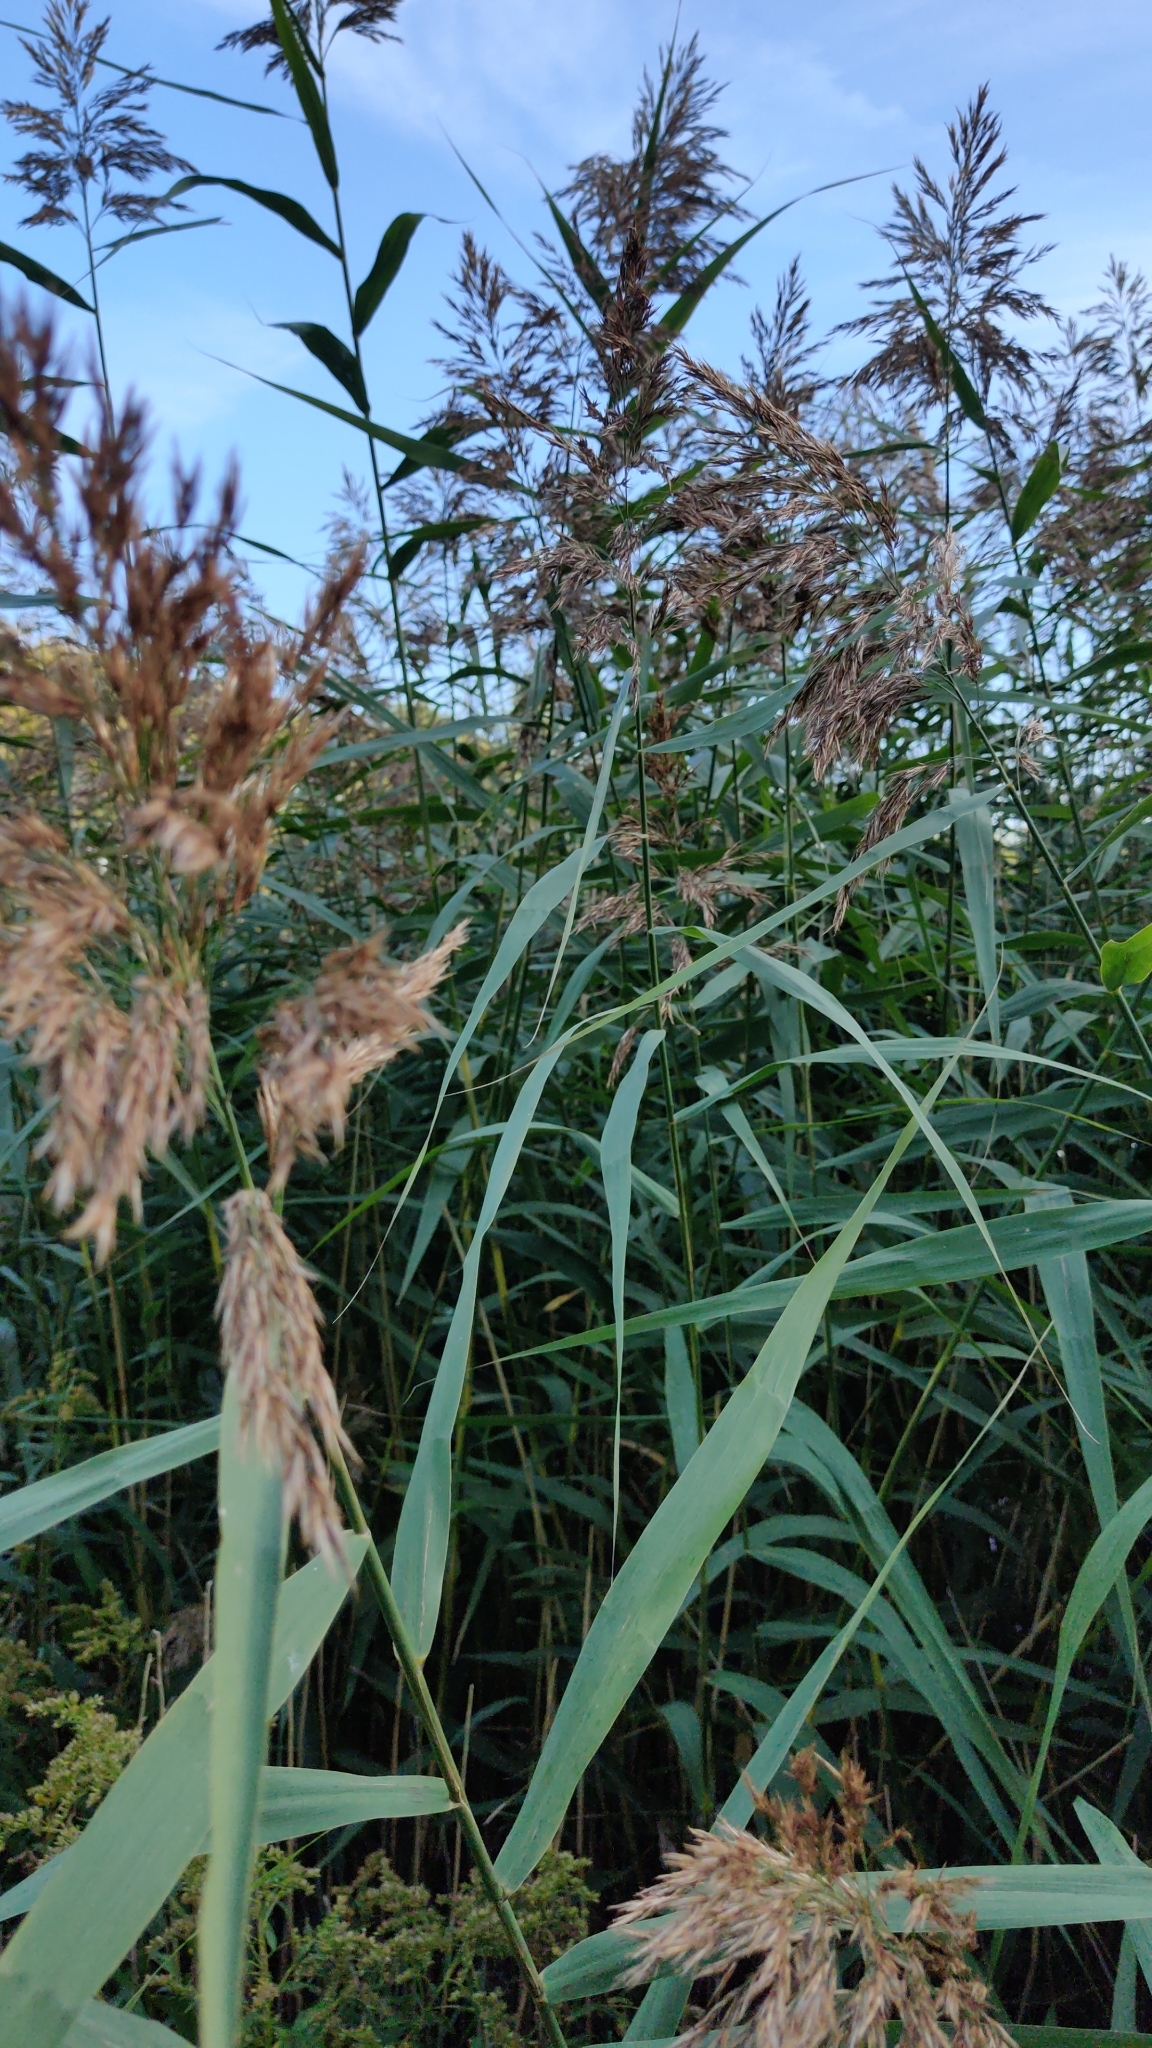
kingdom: Plantae
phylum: Tracheophyta
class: Liliopsida
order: Poales
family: Poaceae
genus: Phragmites
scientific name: Phragmites australis
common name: Common reed
